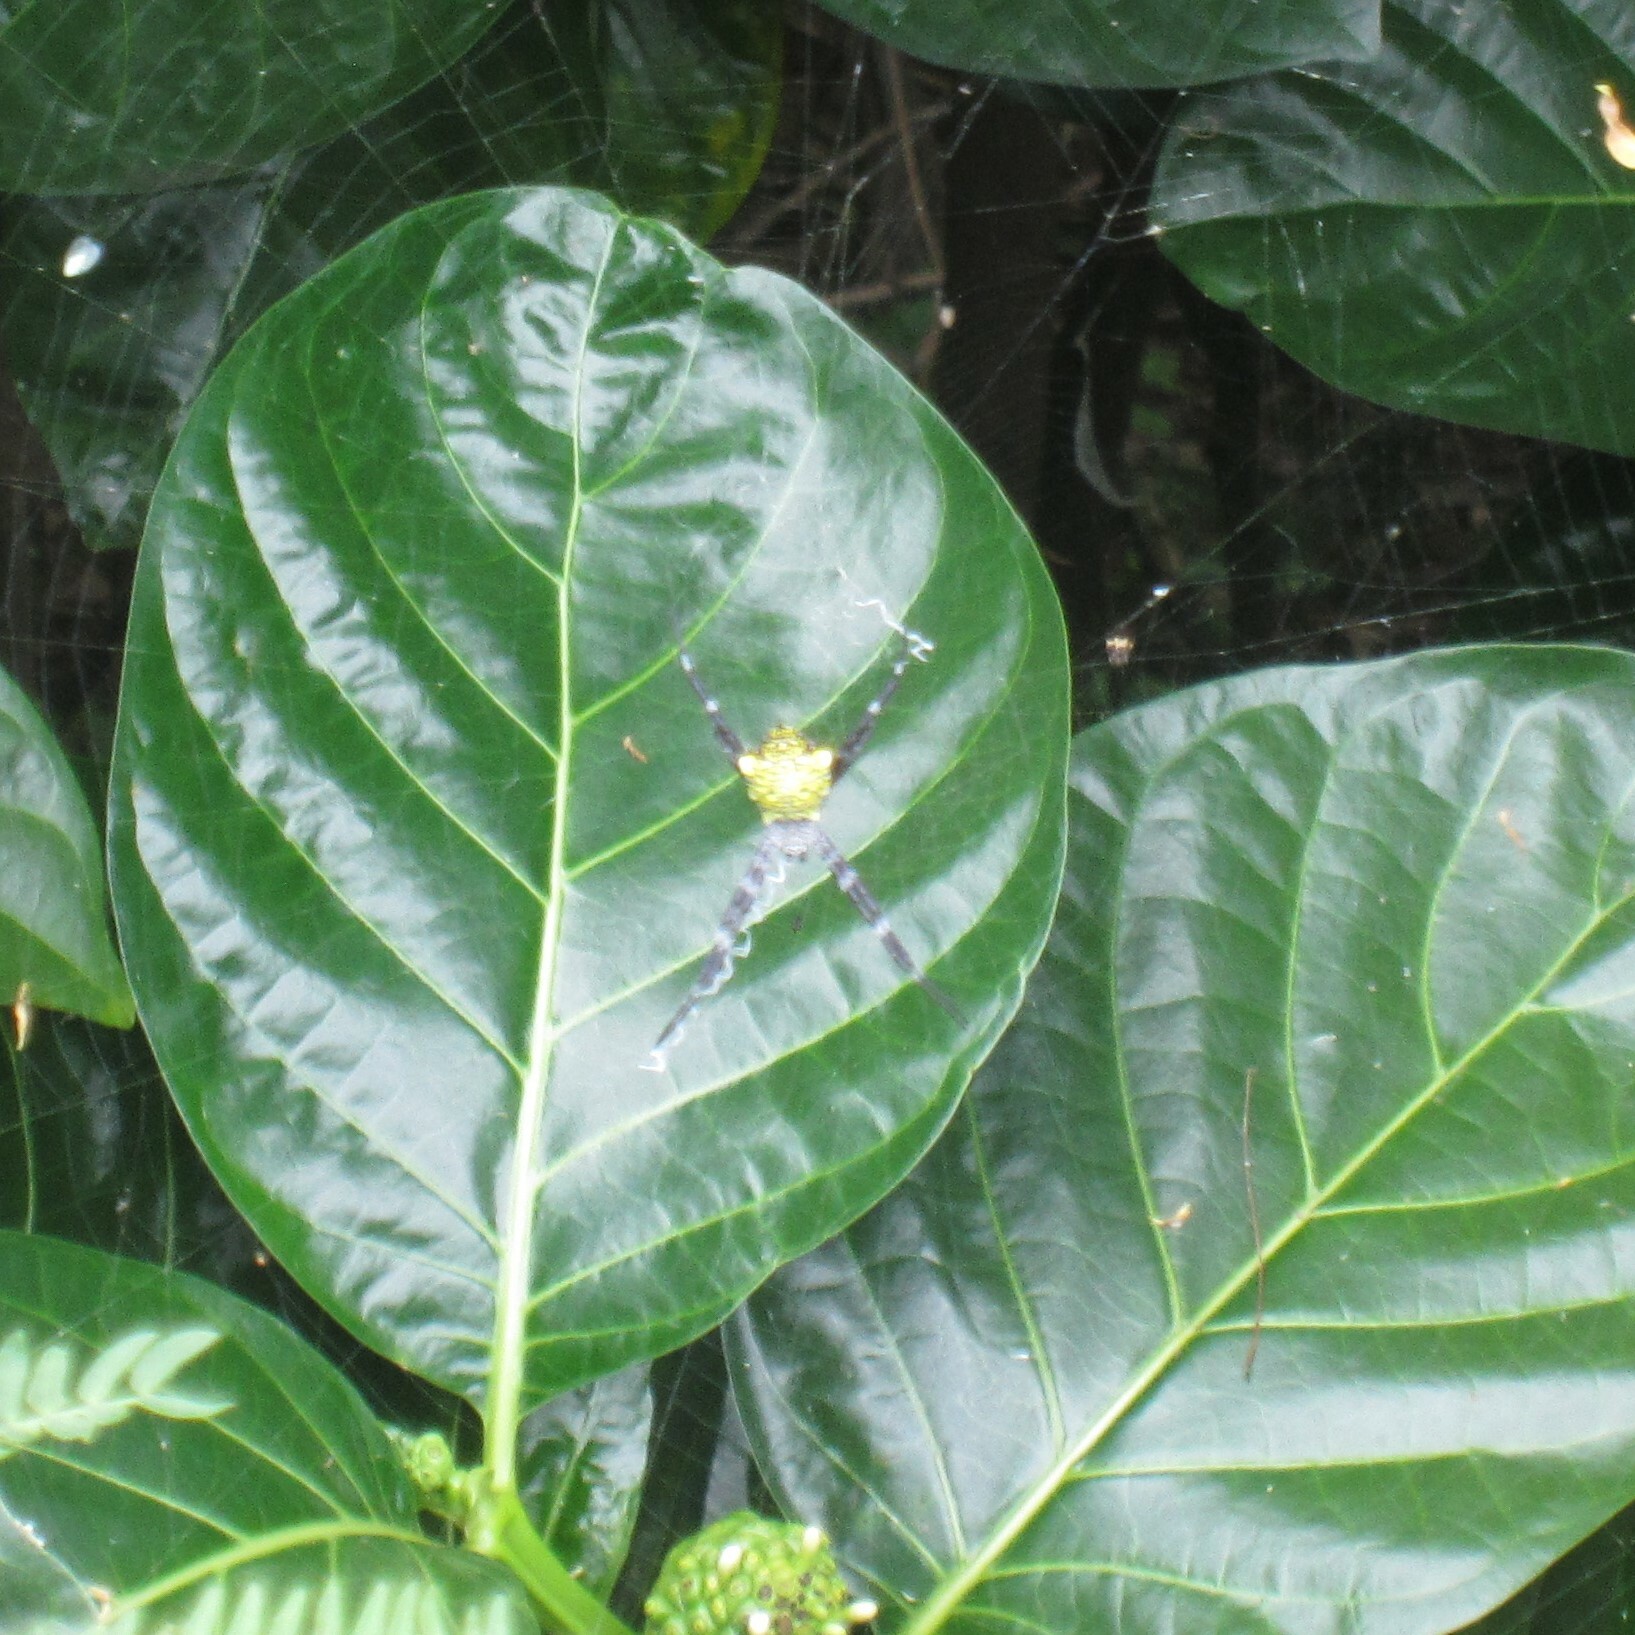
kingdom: Animalia
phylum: Arthropoda
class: Arachnida
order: Araneae
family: Araneidae
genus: Argiope
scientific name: Argiope appensa
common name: Garden spider
